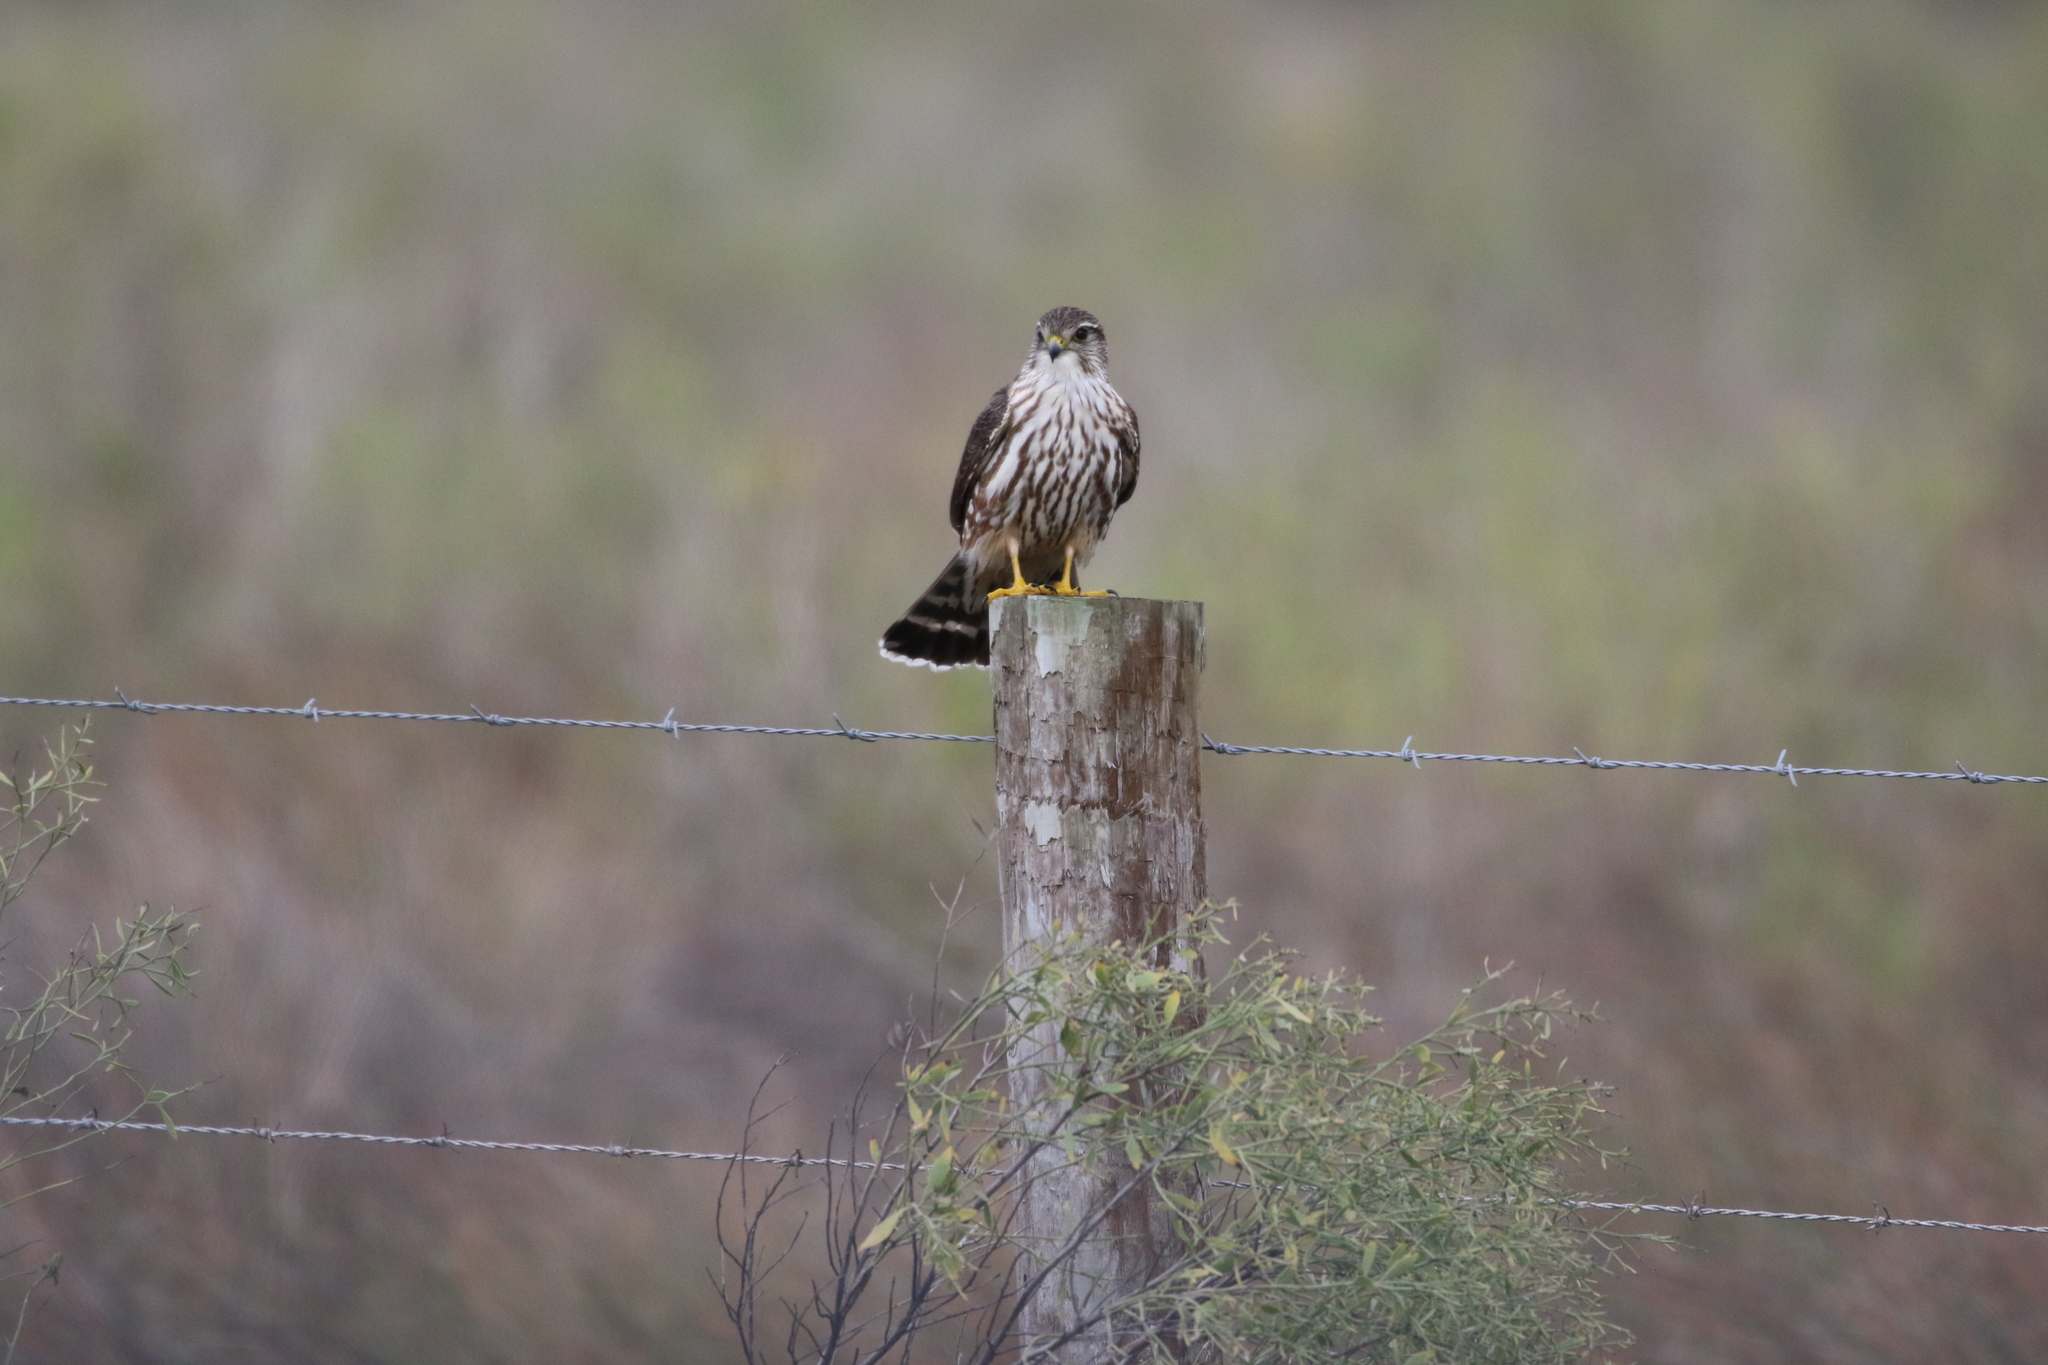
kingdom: Animalia
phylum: Chordata
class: Aves
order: Falconiformes
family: Falconidae
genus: Falco
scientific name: Falco columbarius
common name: Merlin
